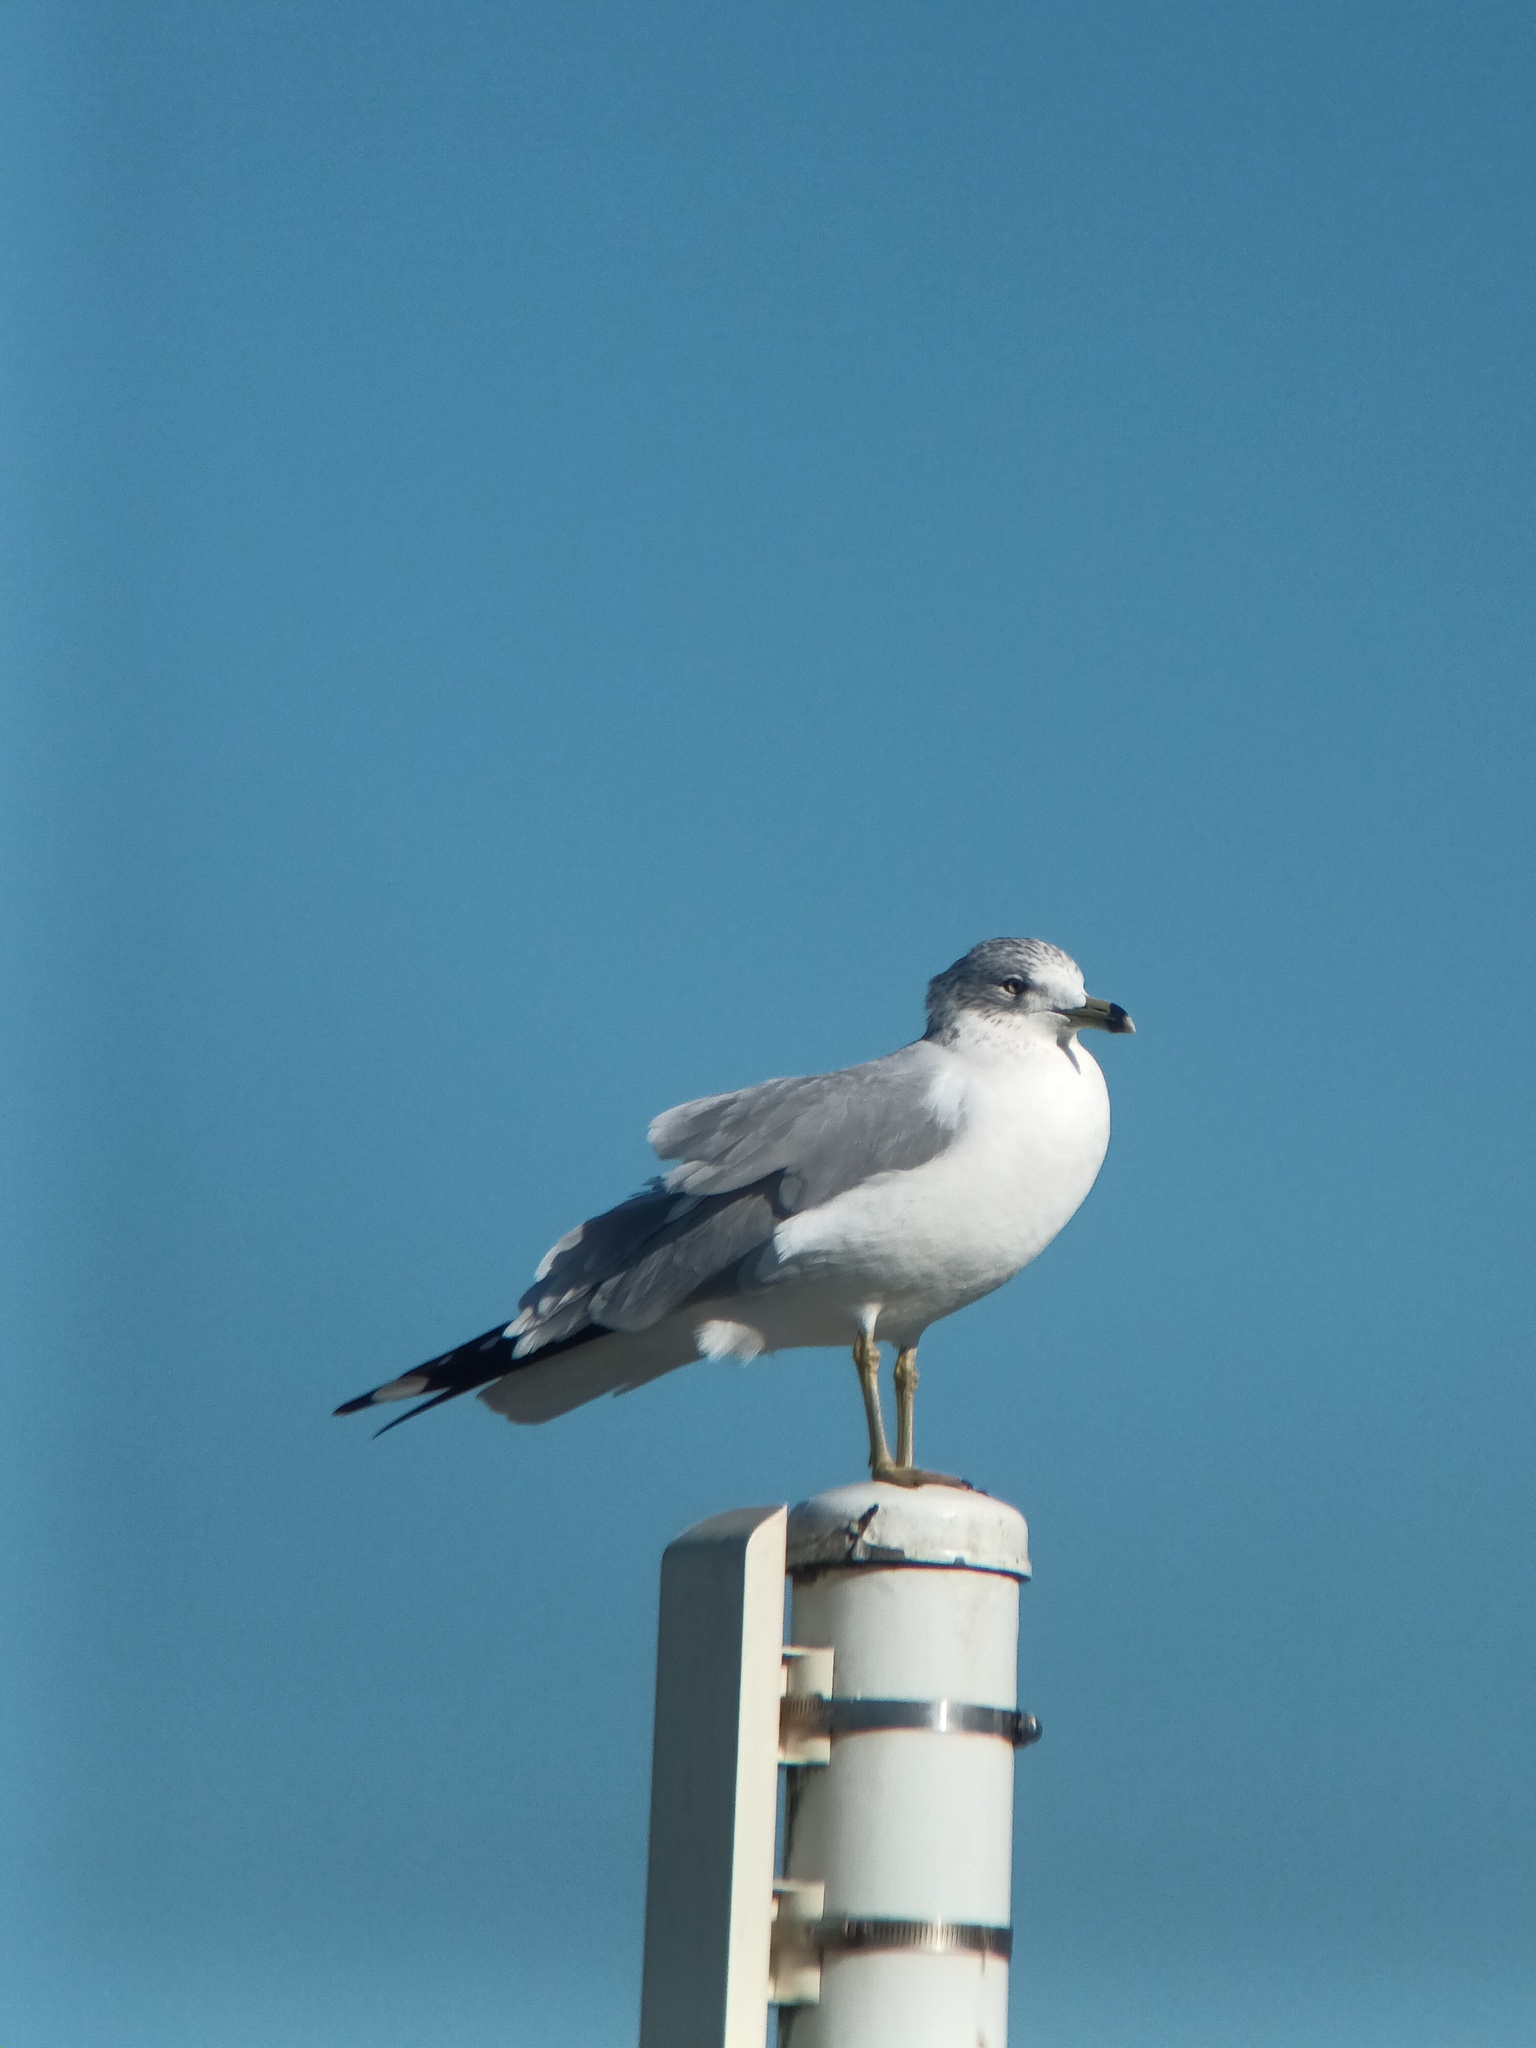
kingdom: Animalia
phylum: Chordata
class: Aves
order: Charadriiformes
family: Laridae
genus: Larus
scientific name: Larus delawarensis
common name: Ring-billed gull
